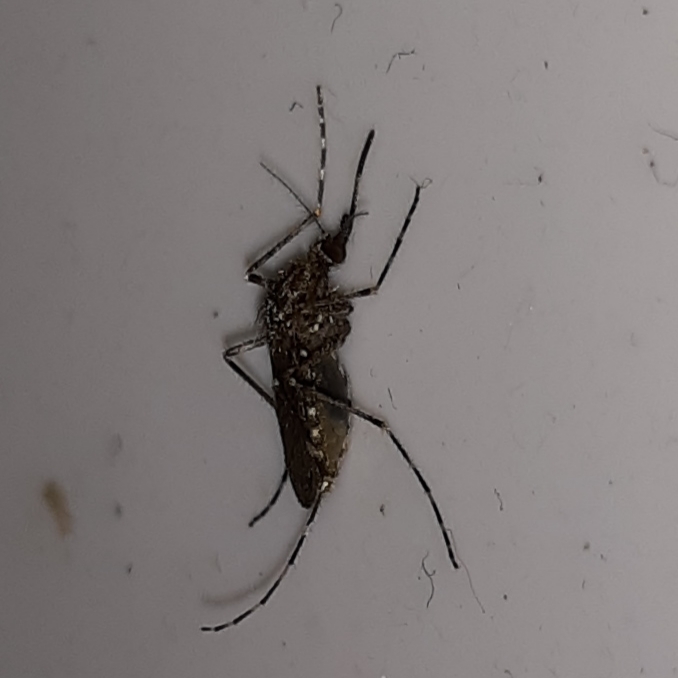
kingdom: Animalia
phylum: Arthropoda
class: Insecta
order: Diptera
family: Culicidae
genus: Coquillettidia
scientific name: Coquillettidia perturbans
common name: Cattail mosquito
